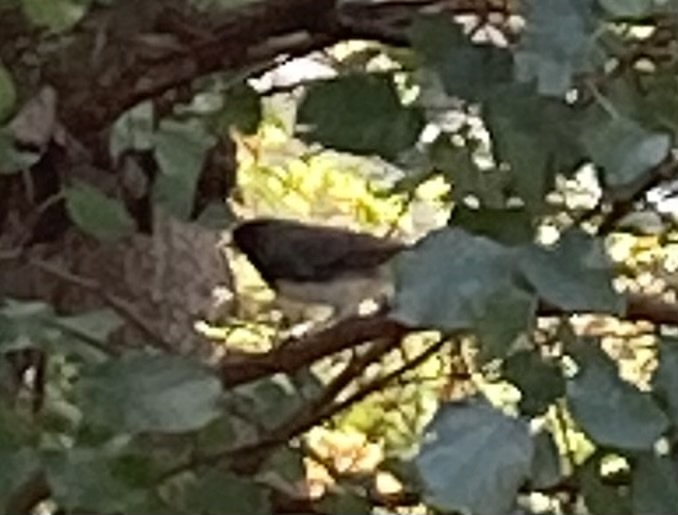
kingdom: Animalia
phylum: Chordata
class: Aves
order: Passeriformes
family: Passerellidae
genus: Junco
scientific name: Junco hyemalis
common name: Dark-eyed junco
